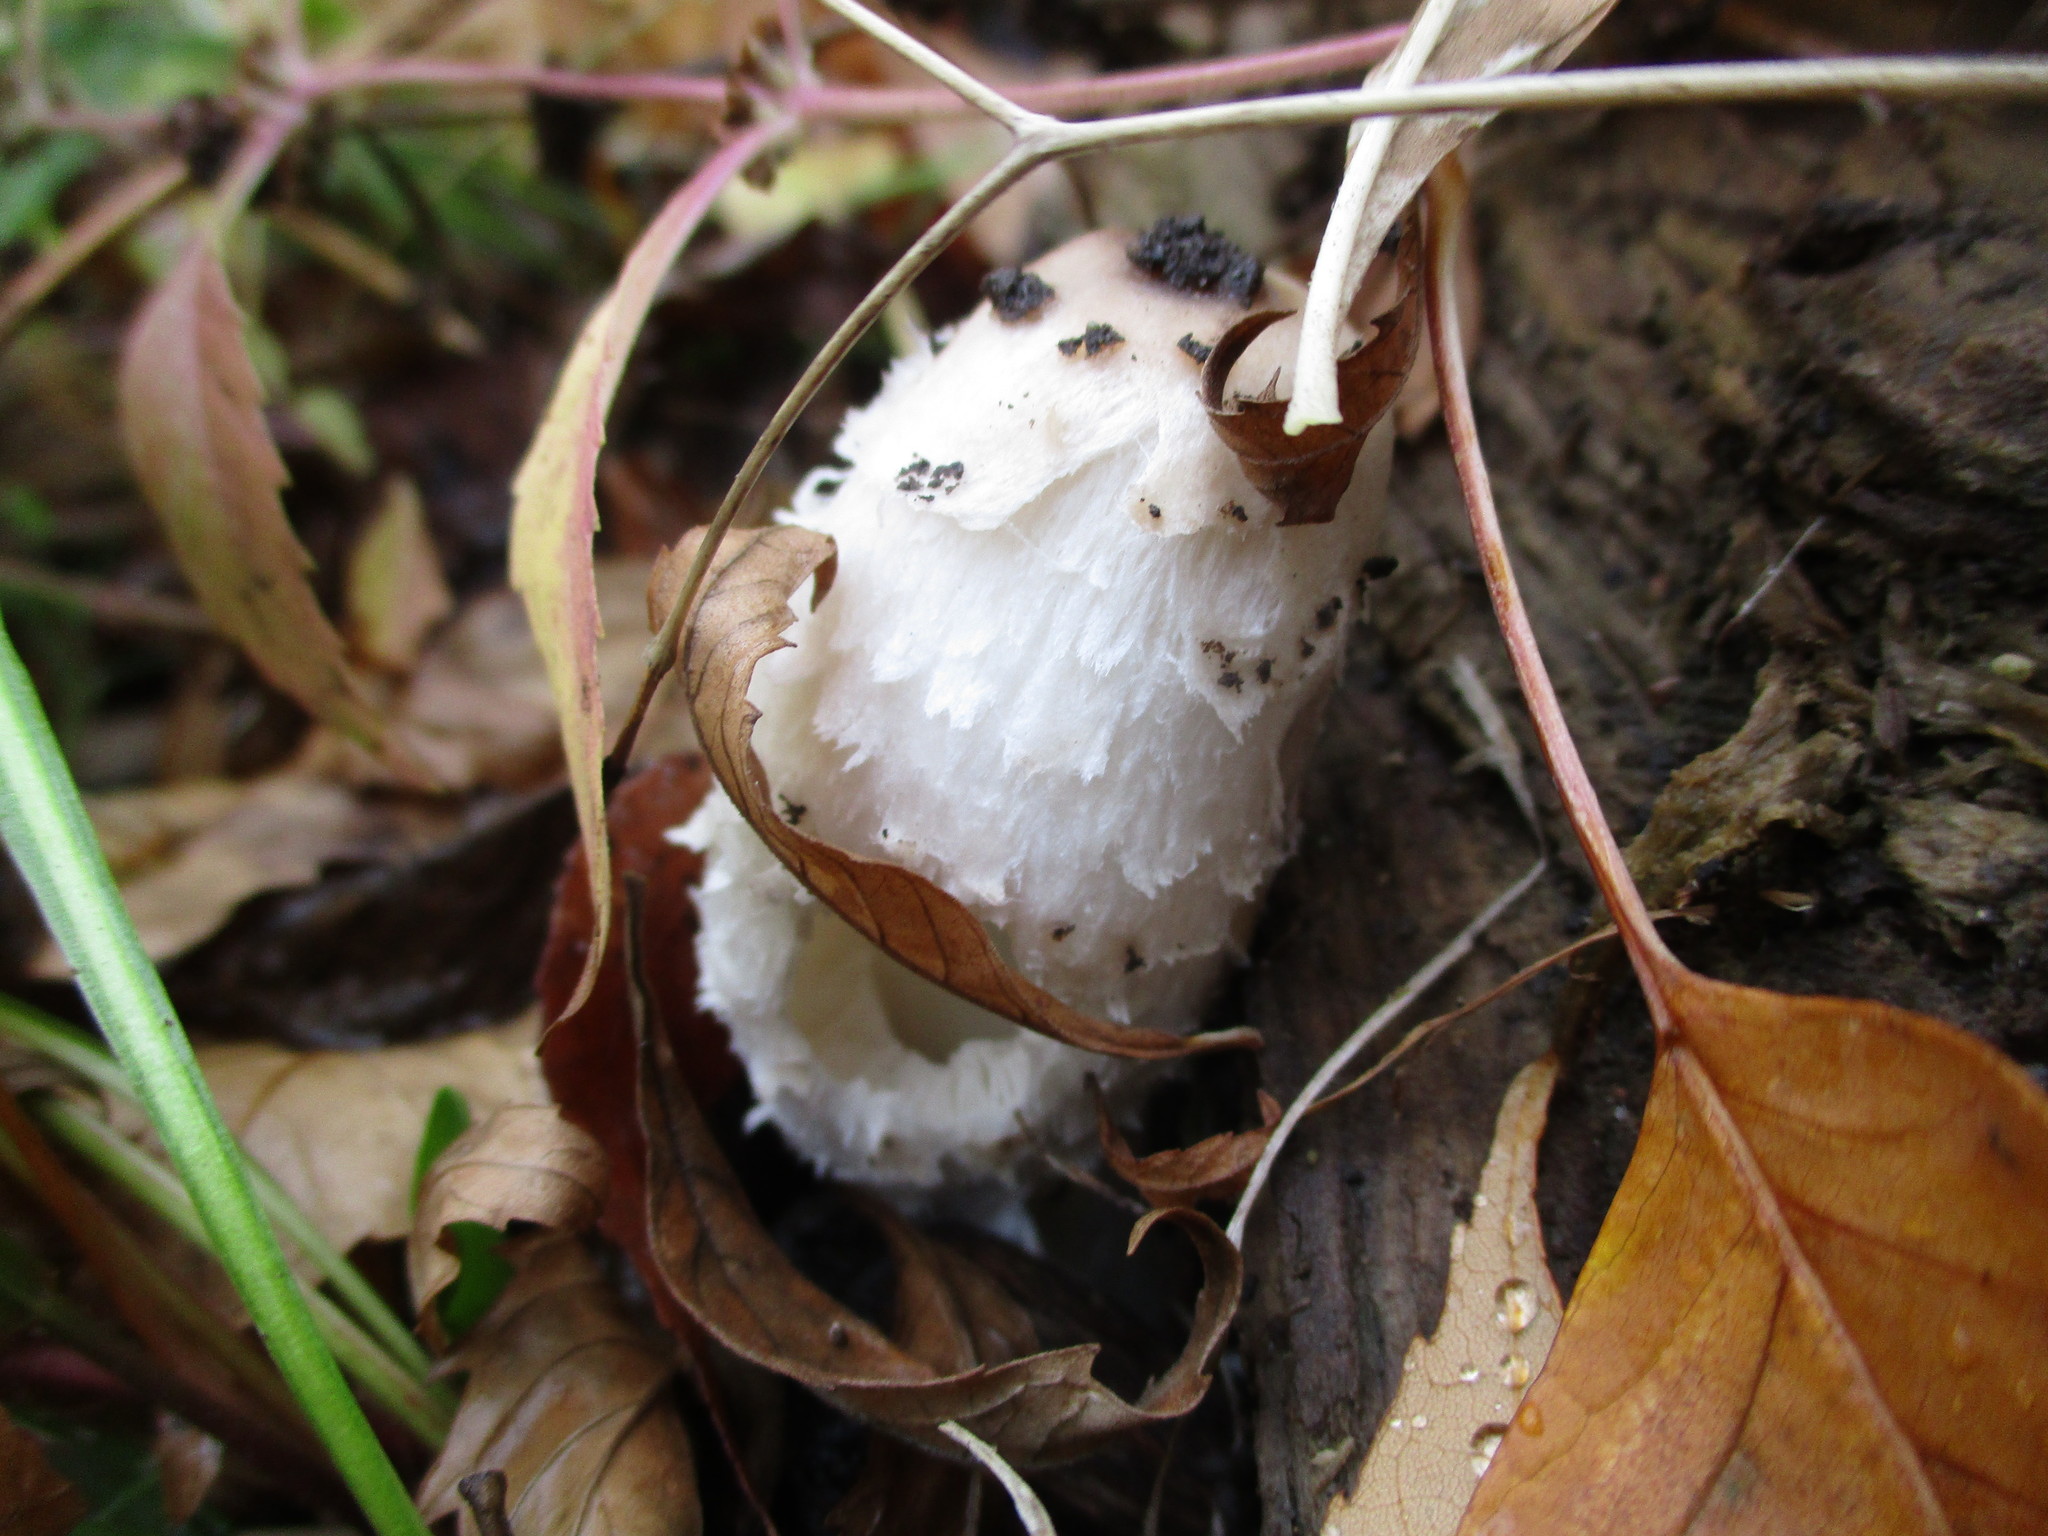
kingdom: Fungi
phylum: Basidiomycota
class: Agaricomycetes
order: Agaricales
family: Agaricaceae
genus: Coprinus
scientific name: Coprinus comatus
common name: Lawyer's wig
